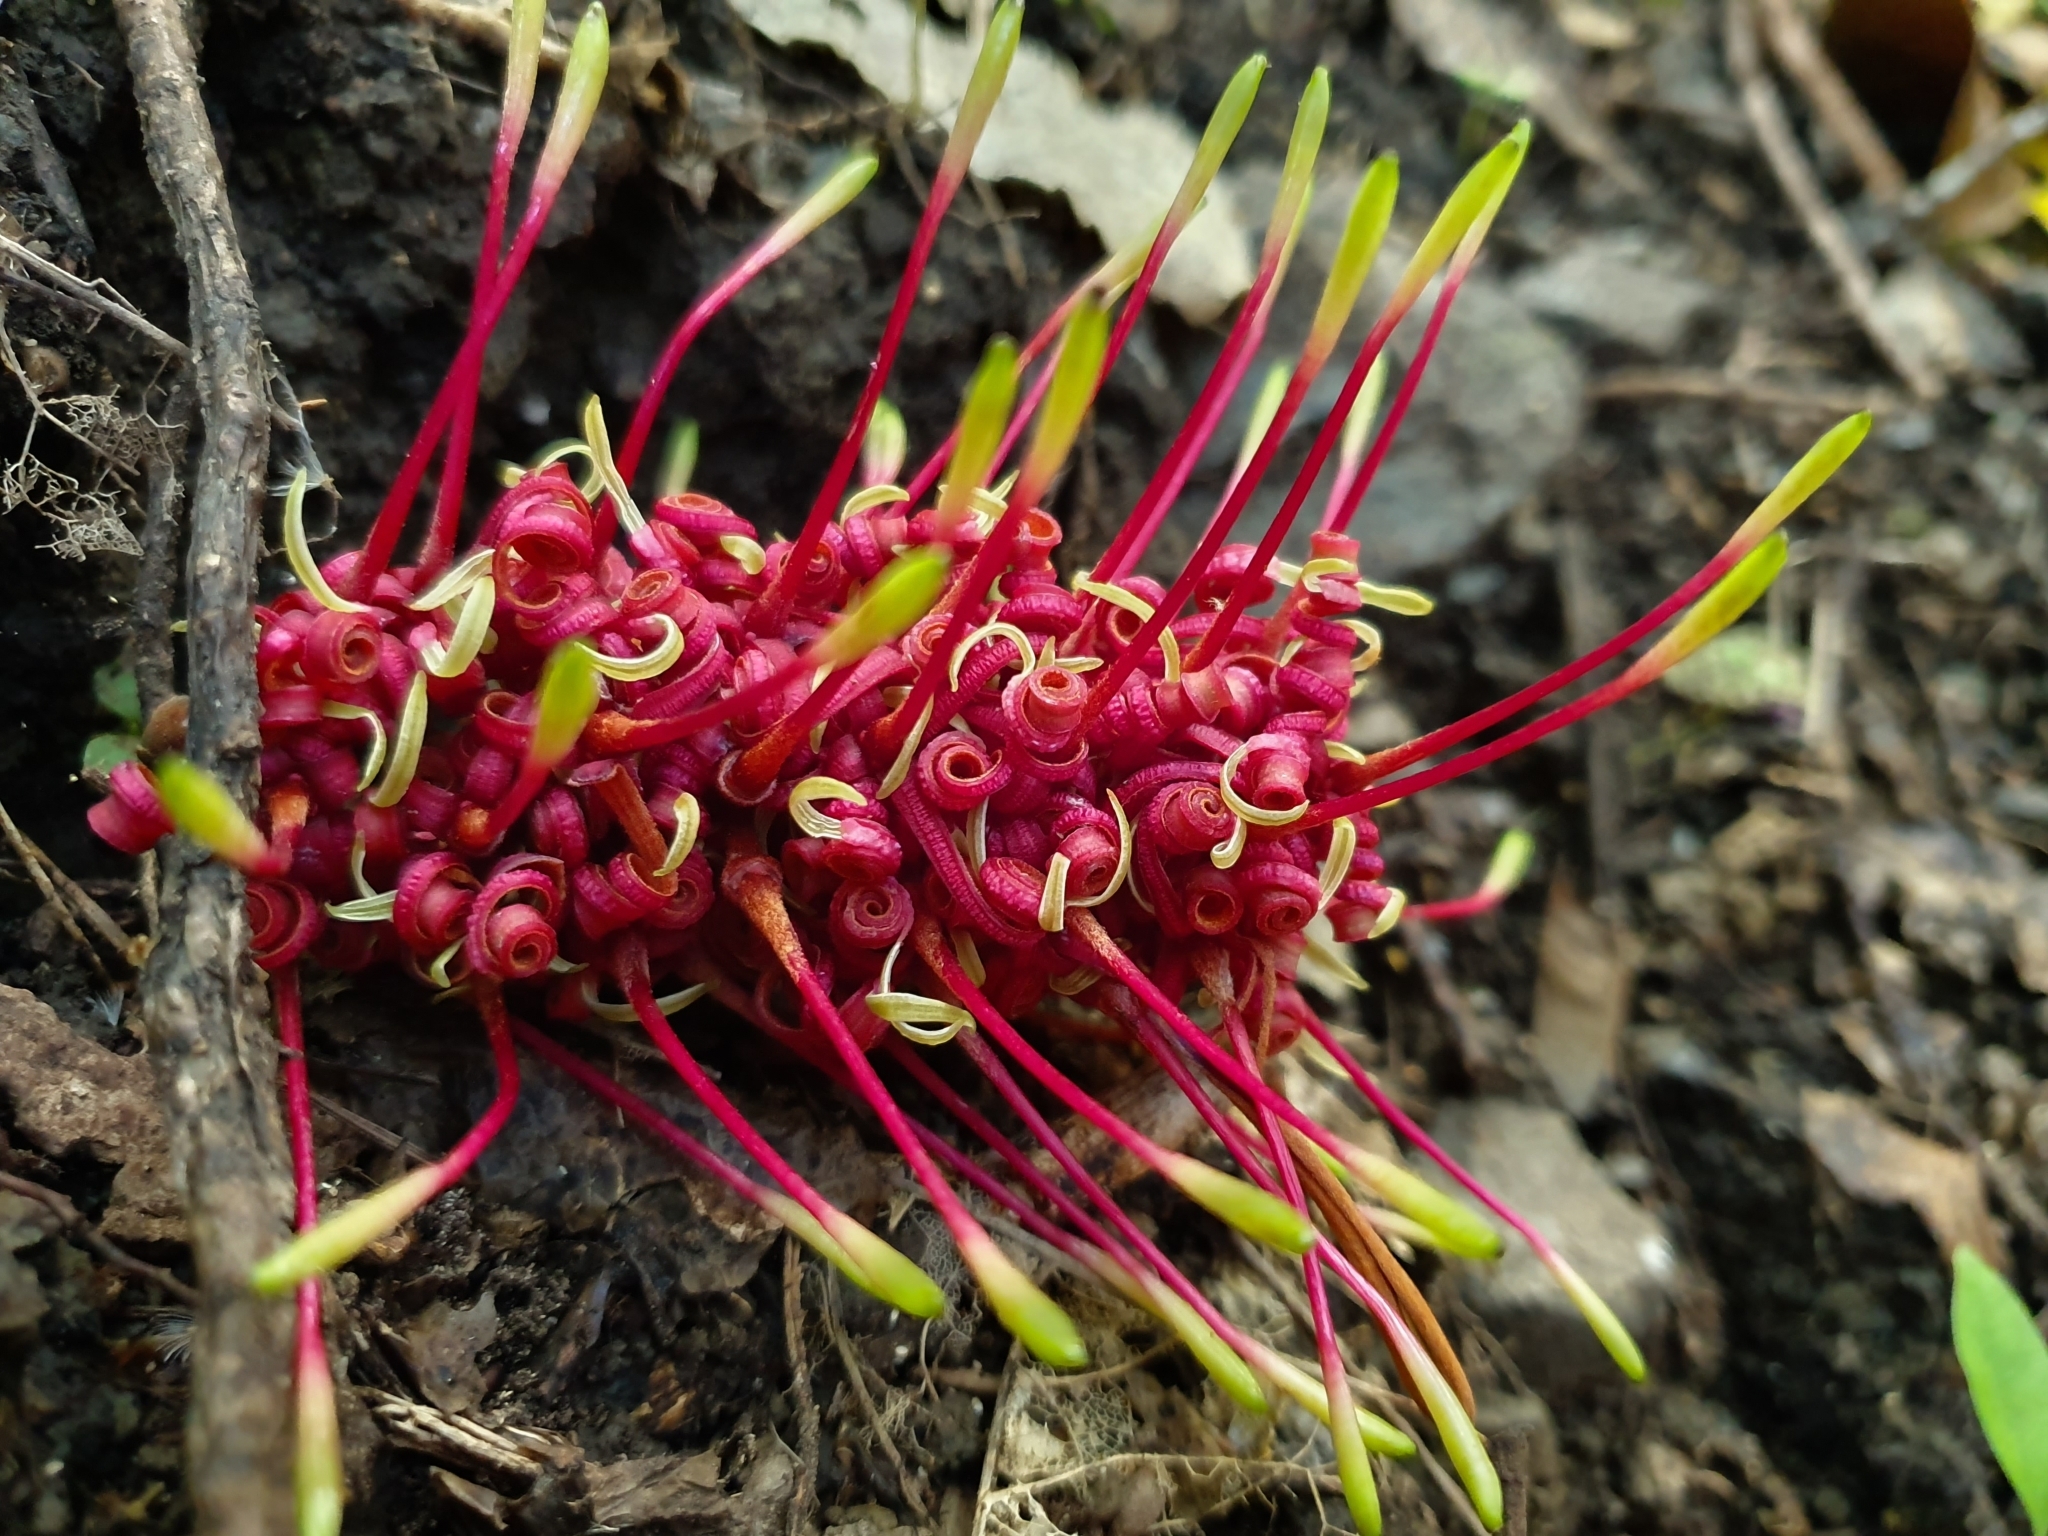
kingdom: Plantae
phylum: Tracheophyta
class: Magnoliopsida
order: Proteales
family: Proteaceae
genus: Knightia
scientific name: Knightia excelsa
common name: New zealand-honeysuckle
